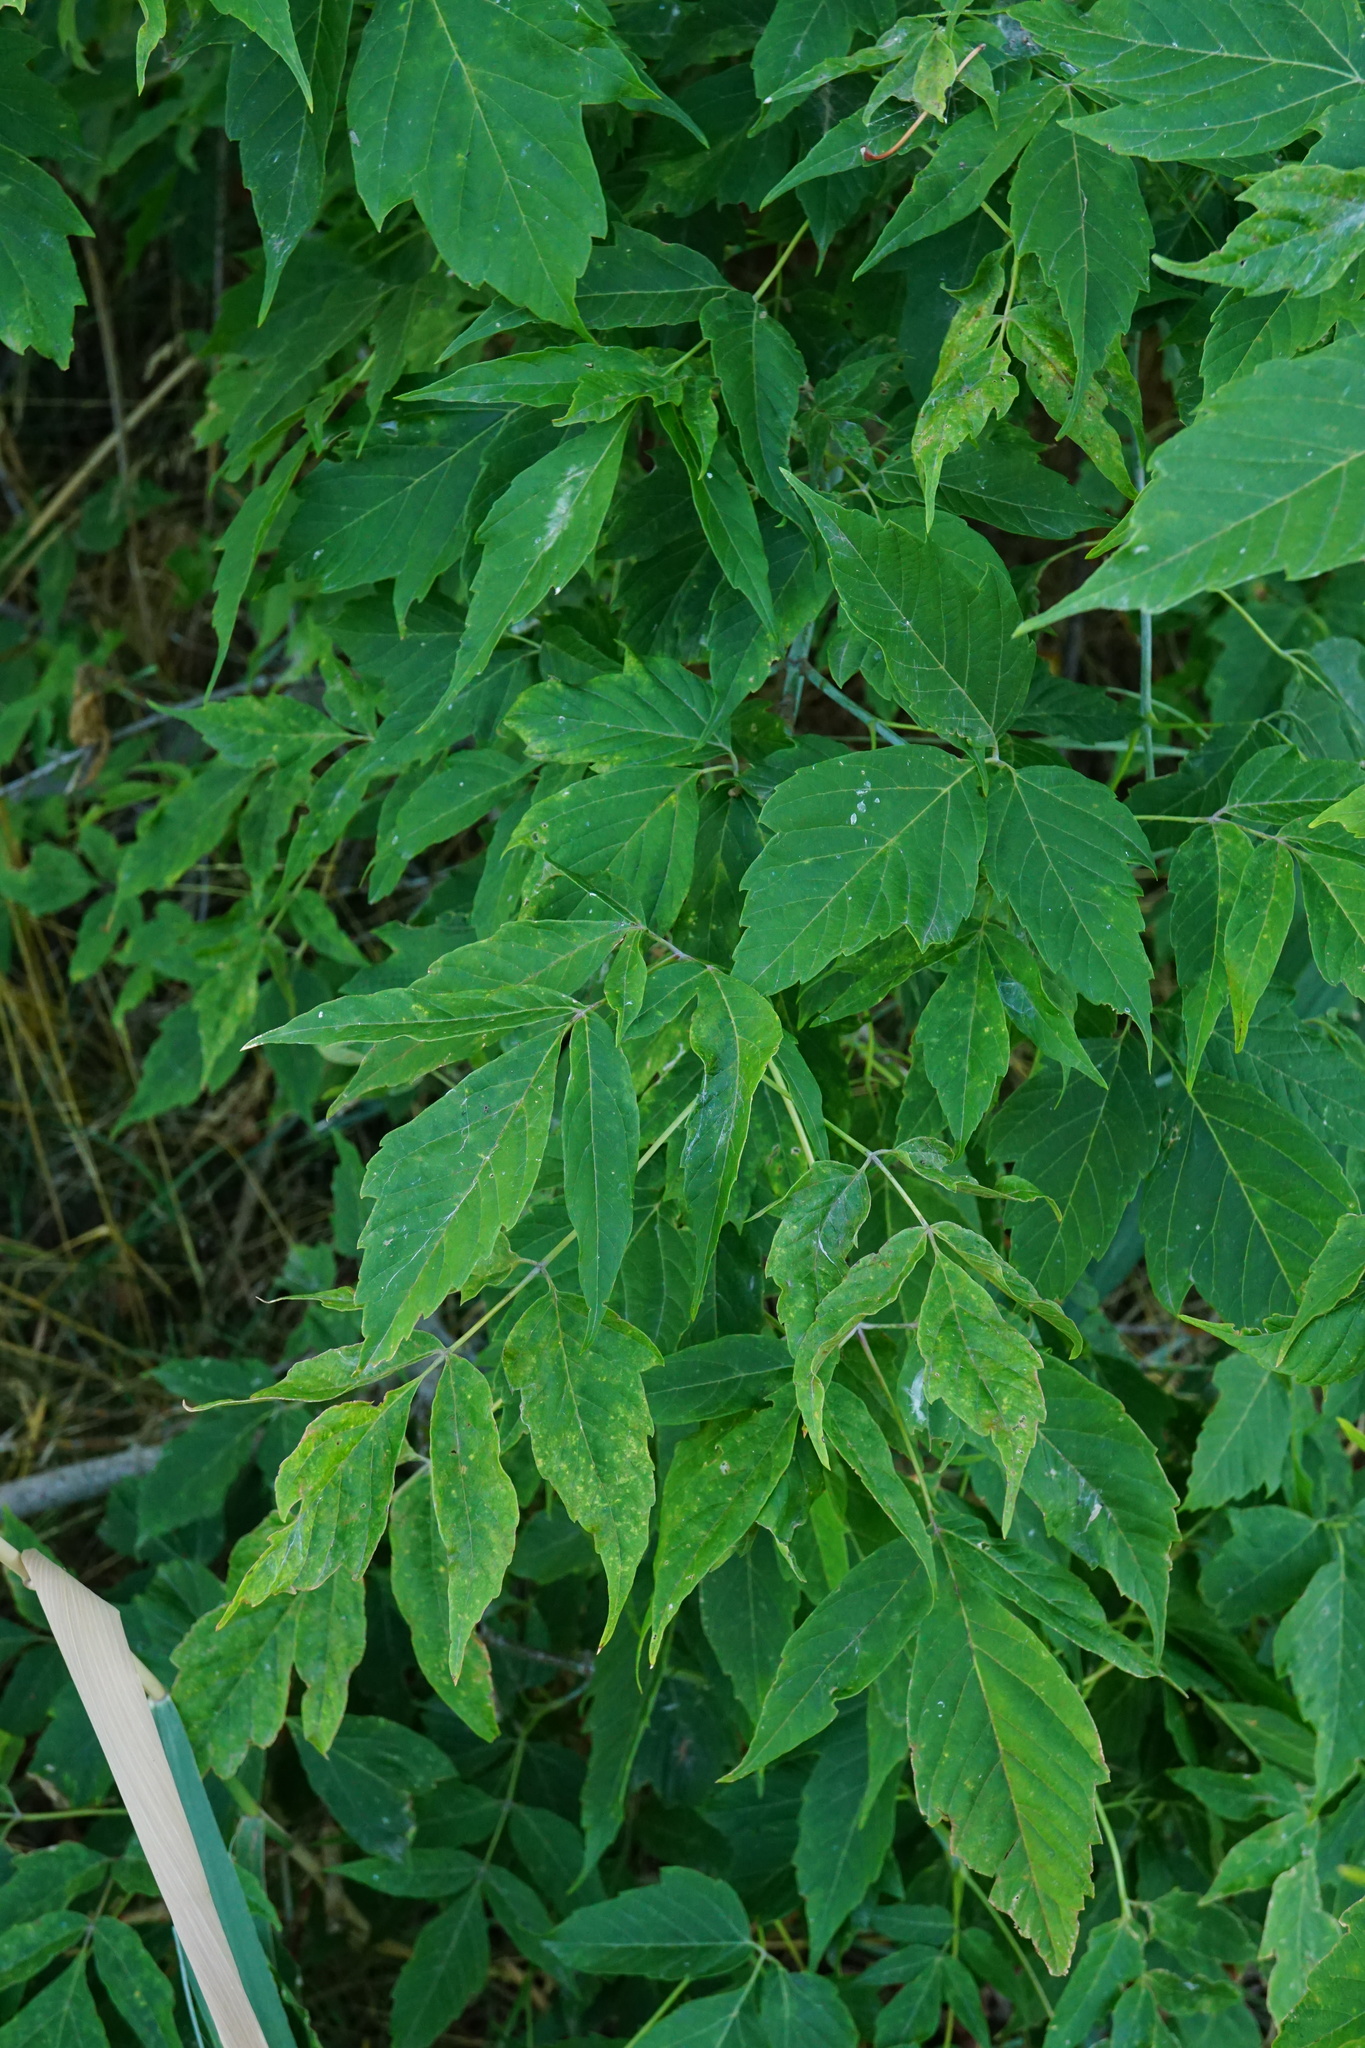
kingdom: Plantae
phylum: Tracheophyta
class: Magnoliopsida
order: Sapindales
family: Sapindaceae
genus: Acer
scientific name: Acer negundo
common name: Ashleaf maple
